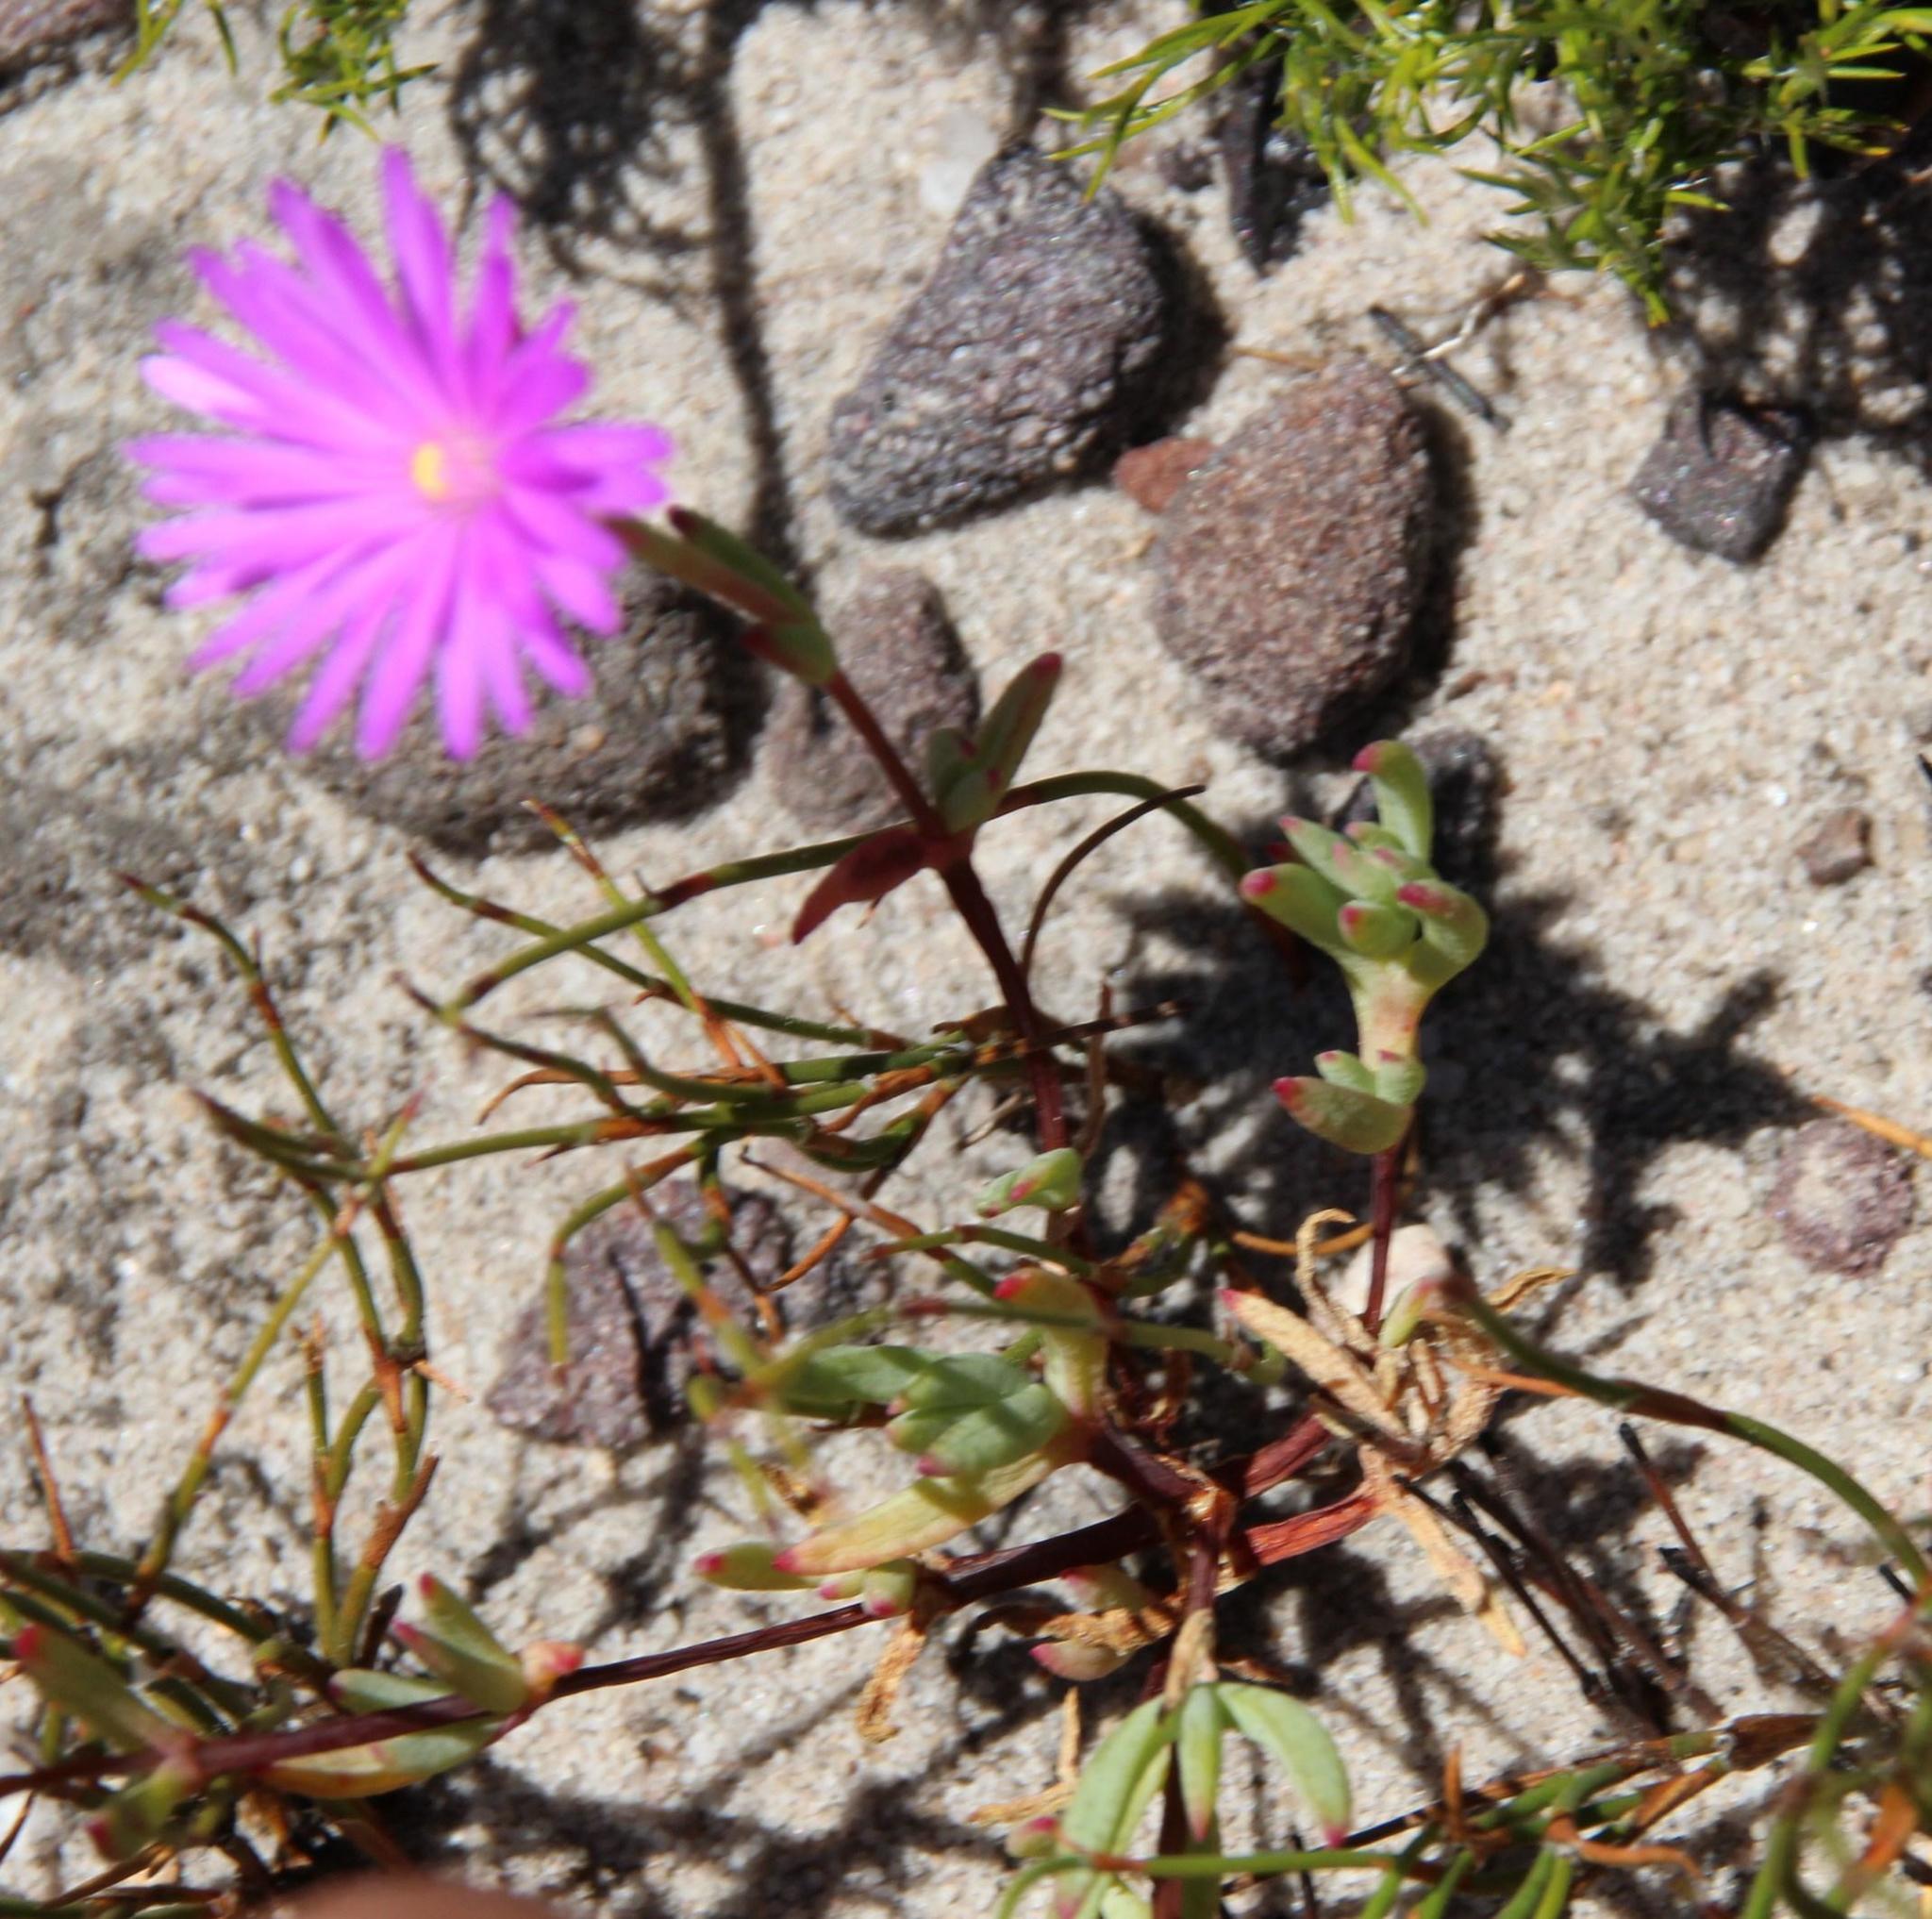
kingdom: Plantae
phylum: Tracheophyta
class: Magnoliopsida
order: Caryophyllales
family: Aizoaceae
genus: Lampranthus
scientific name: Lampranthus falcatus
